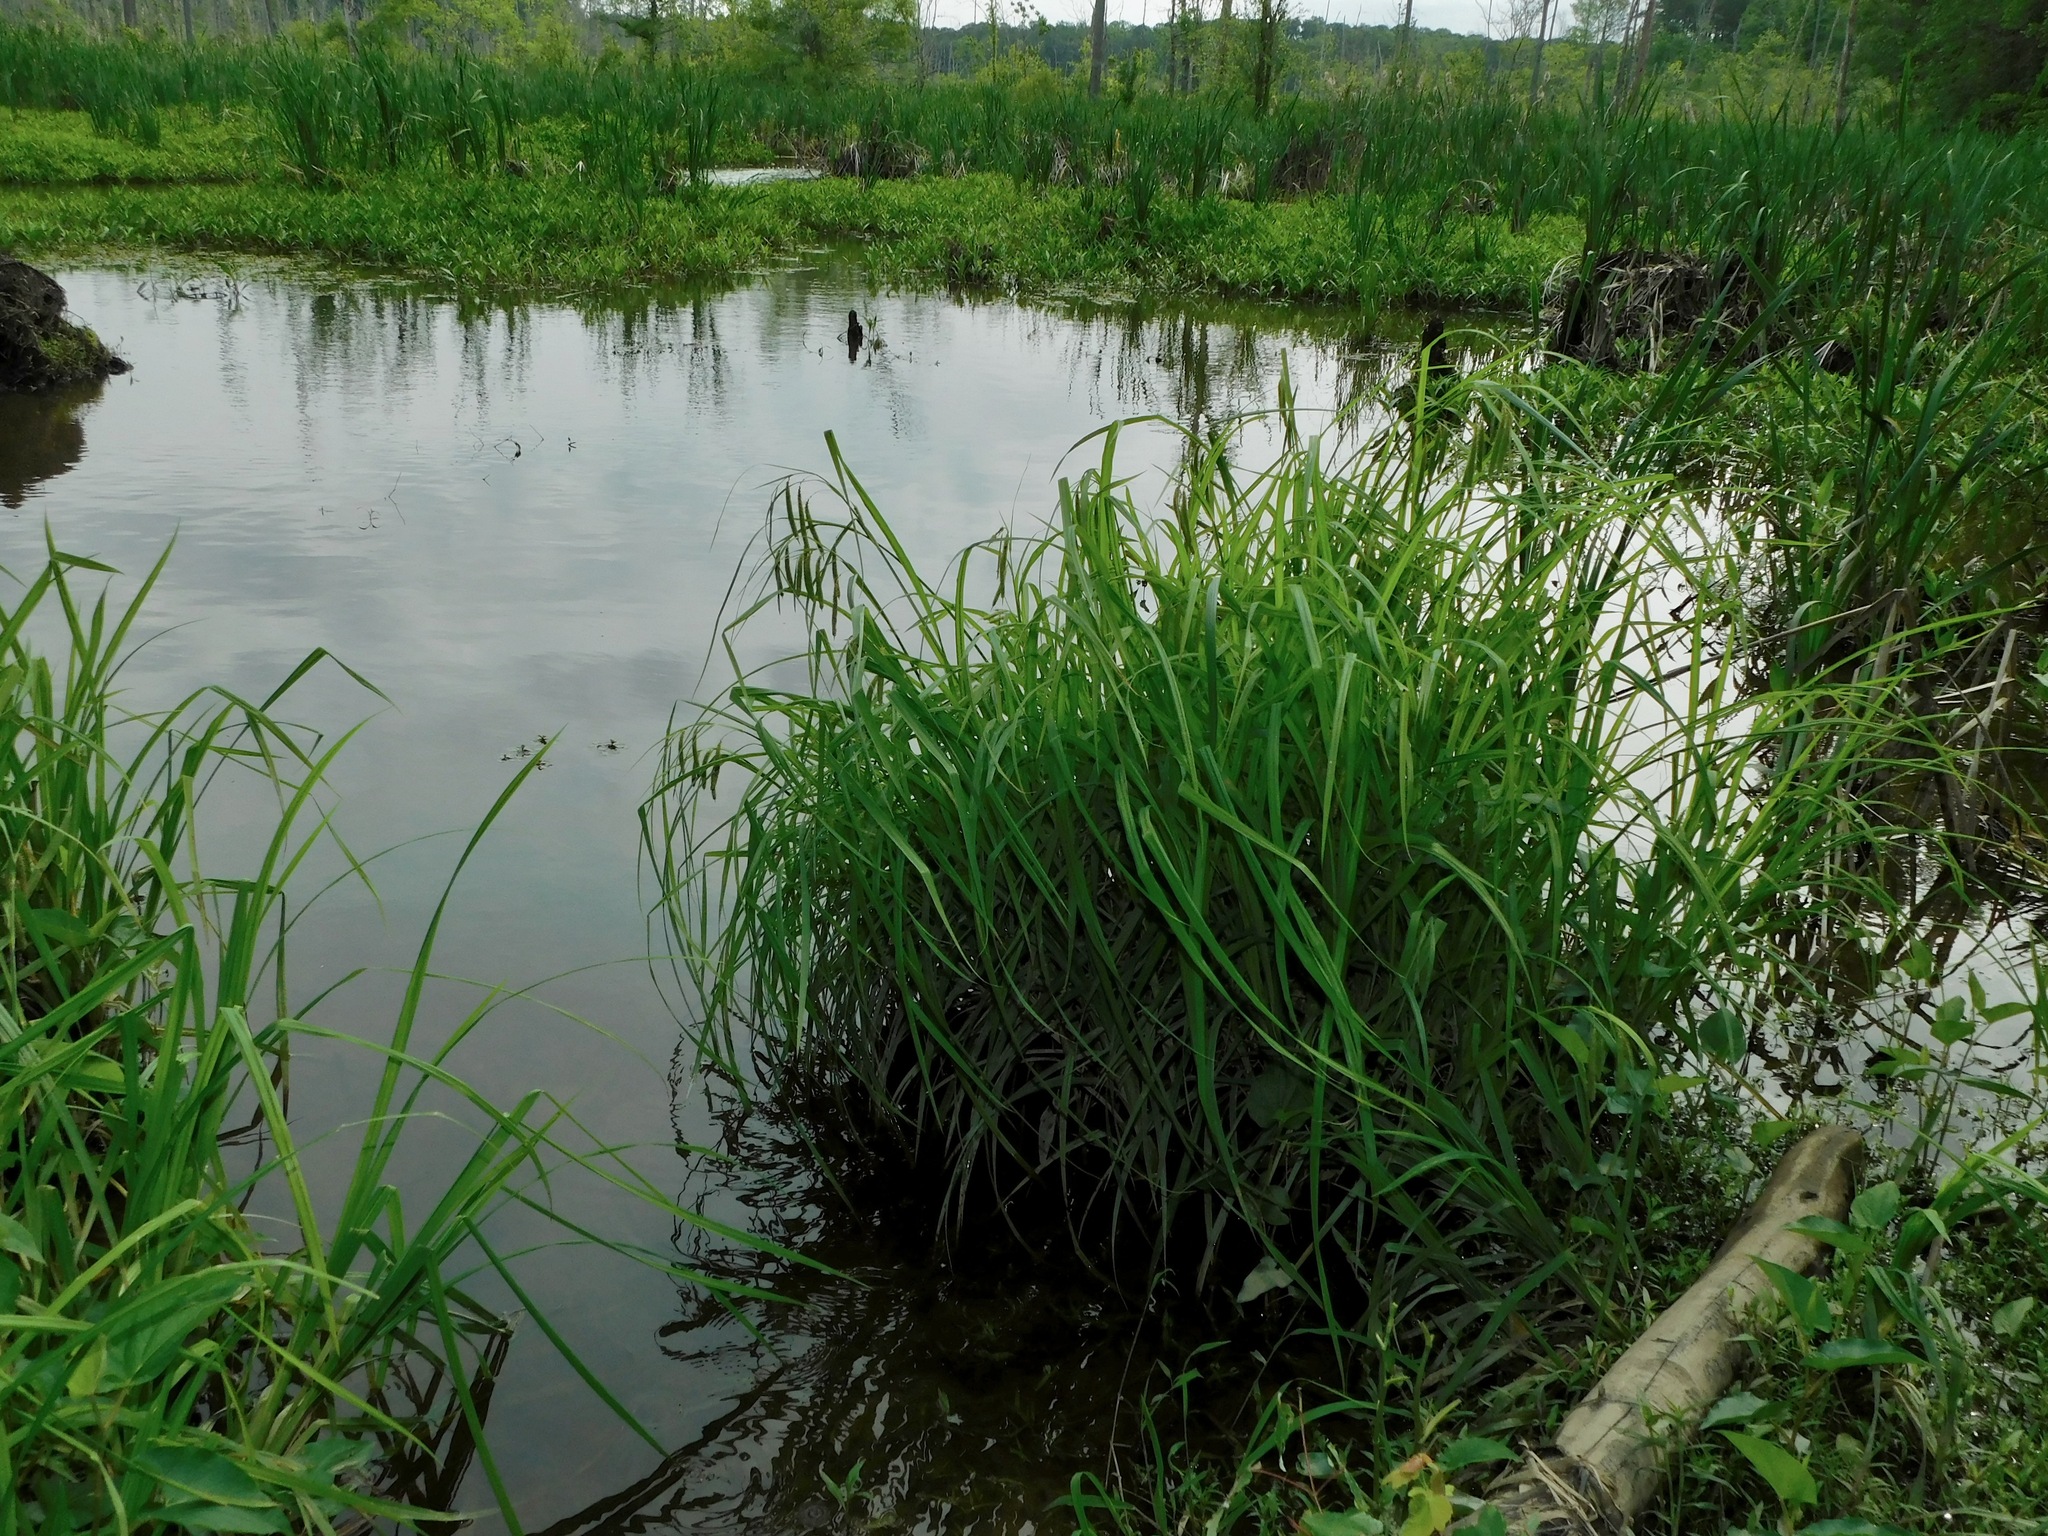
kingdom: Plantae
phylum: Tracheophyta
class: Liliopsida
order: Poales
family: Cyperaceae
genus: Carex
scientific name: Carex crinita
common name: Fringed sedge
